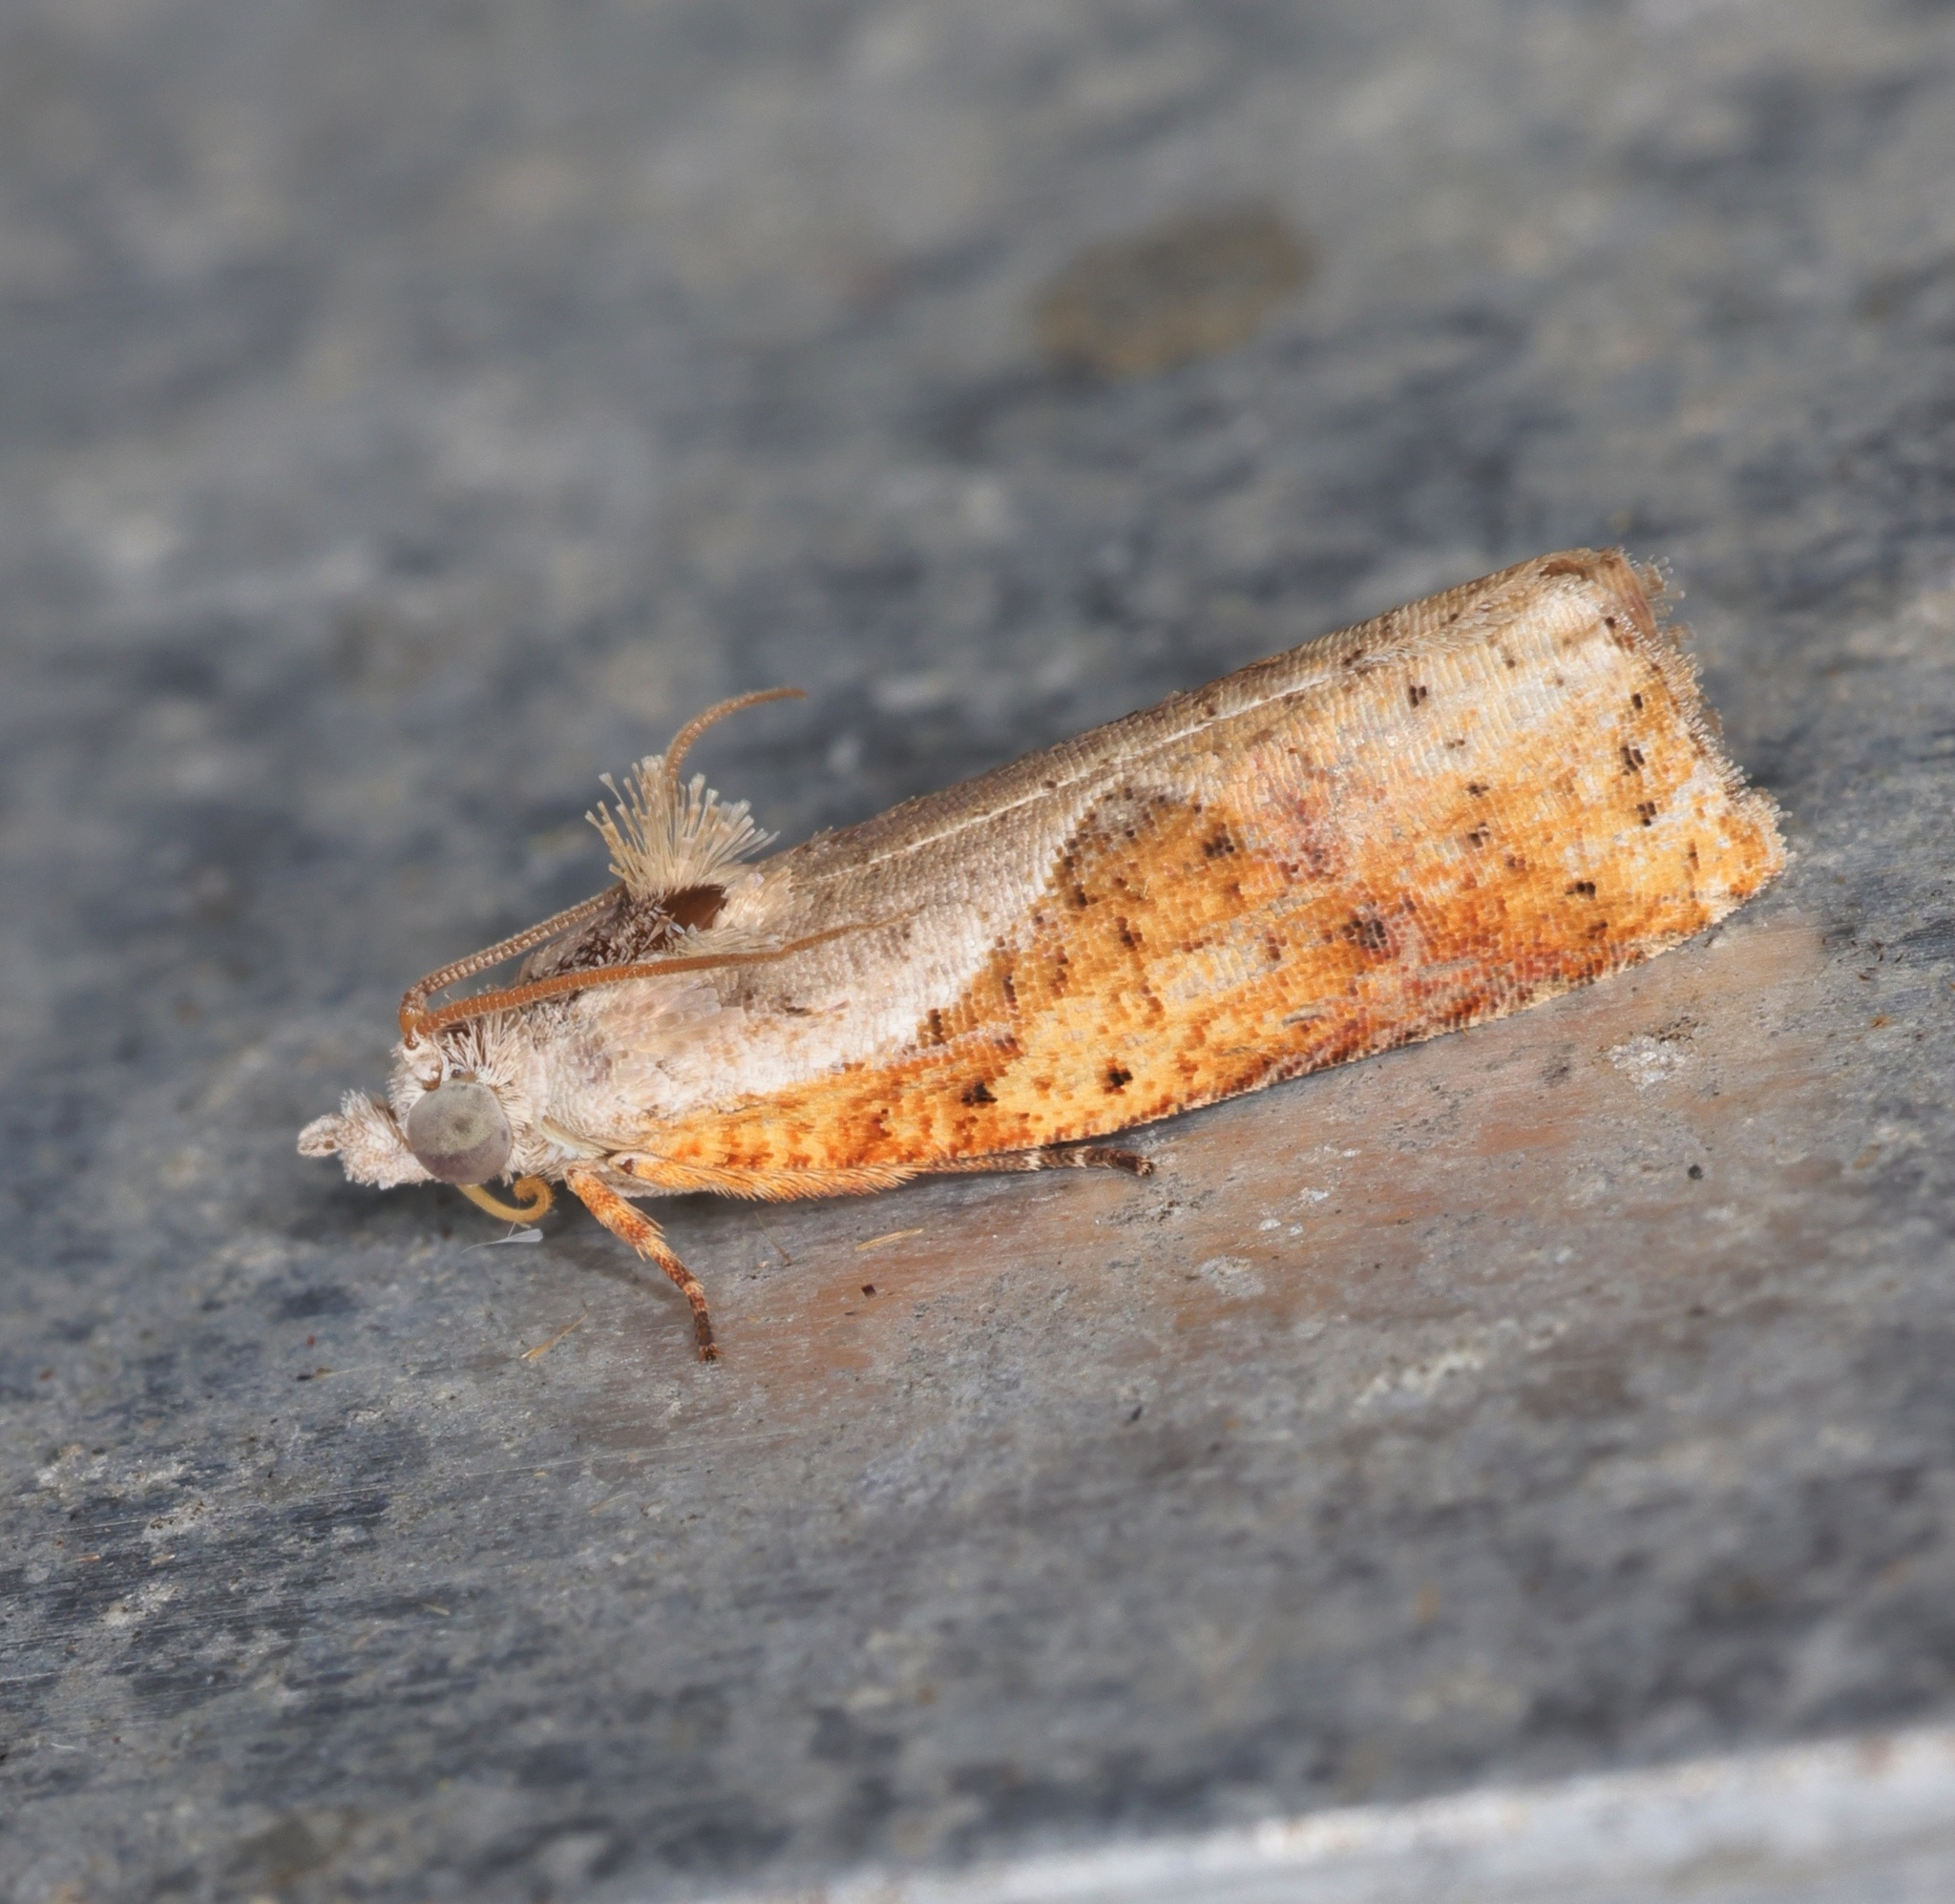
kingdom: Animalia
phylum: Arthropoda
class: Insecta
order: Lepidoptera
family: Tortricidae
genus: Rhectogonia
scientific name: Rhectogonia ancalota
